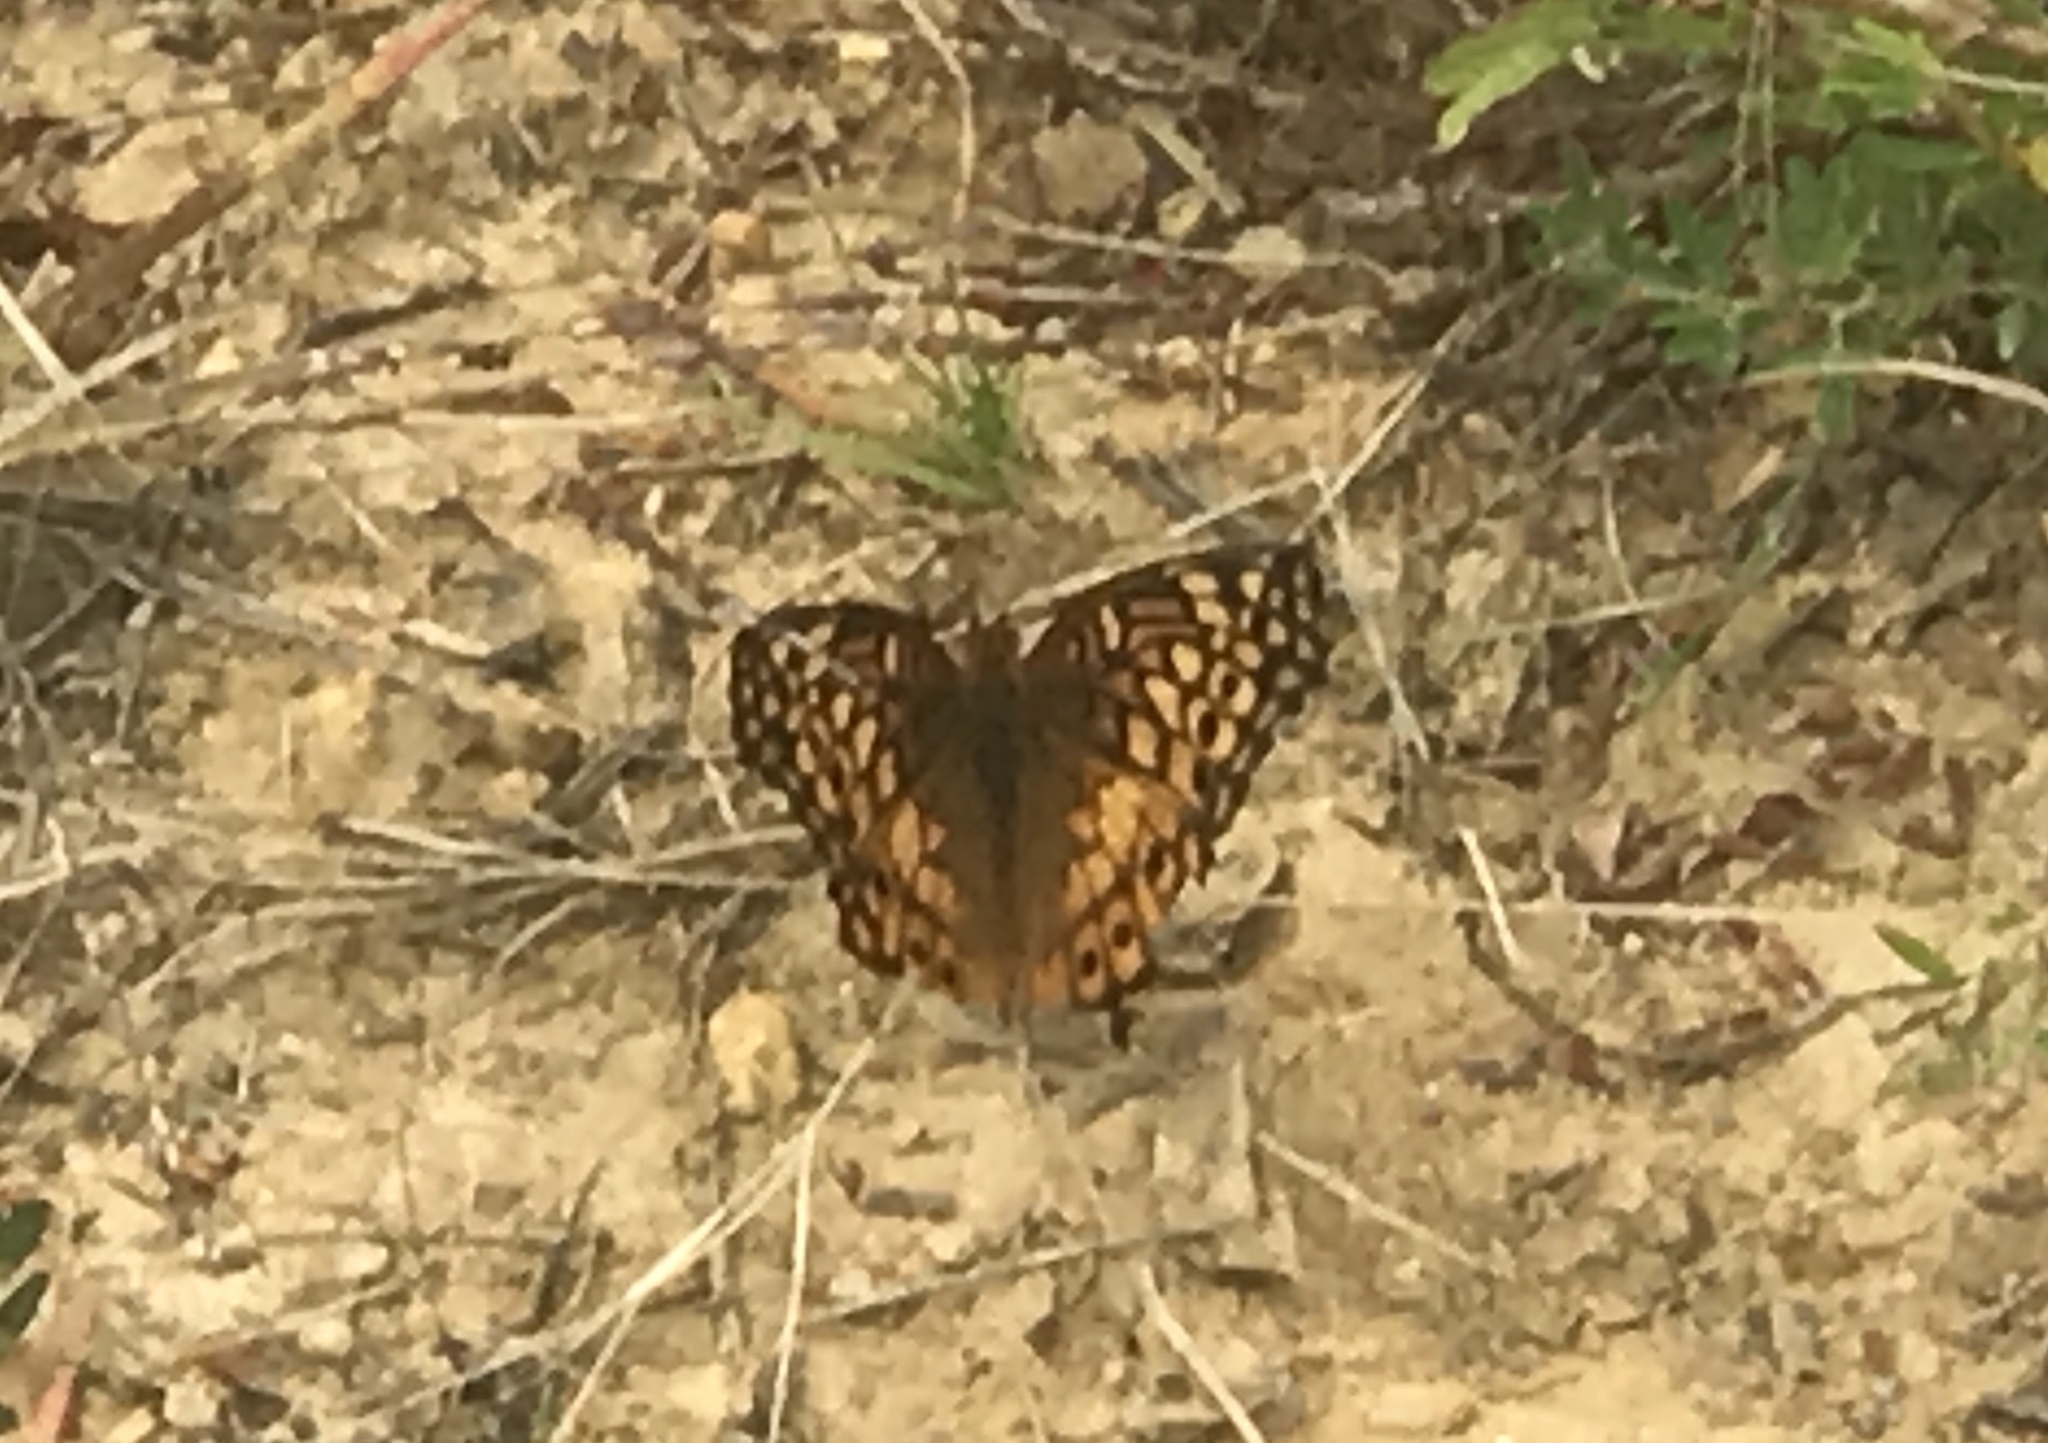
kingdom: Animalia
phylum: Arthropoda
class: Insecta
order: Lepidoptera
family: Nymphalidae
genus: Euptoieta
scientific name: Euptoieta claudia
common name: Variegated fritillary
